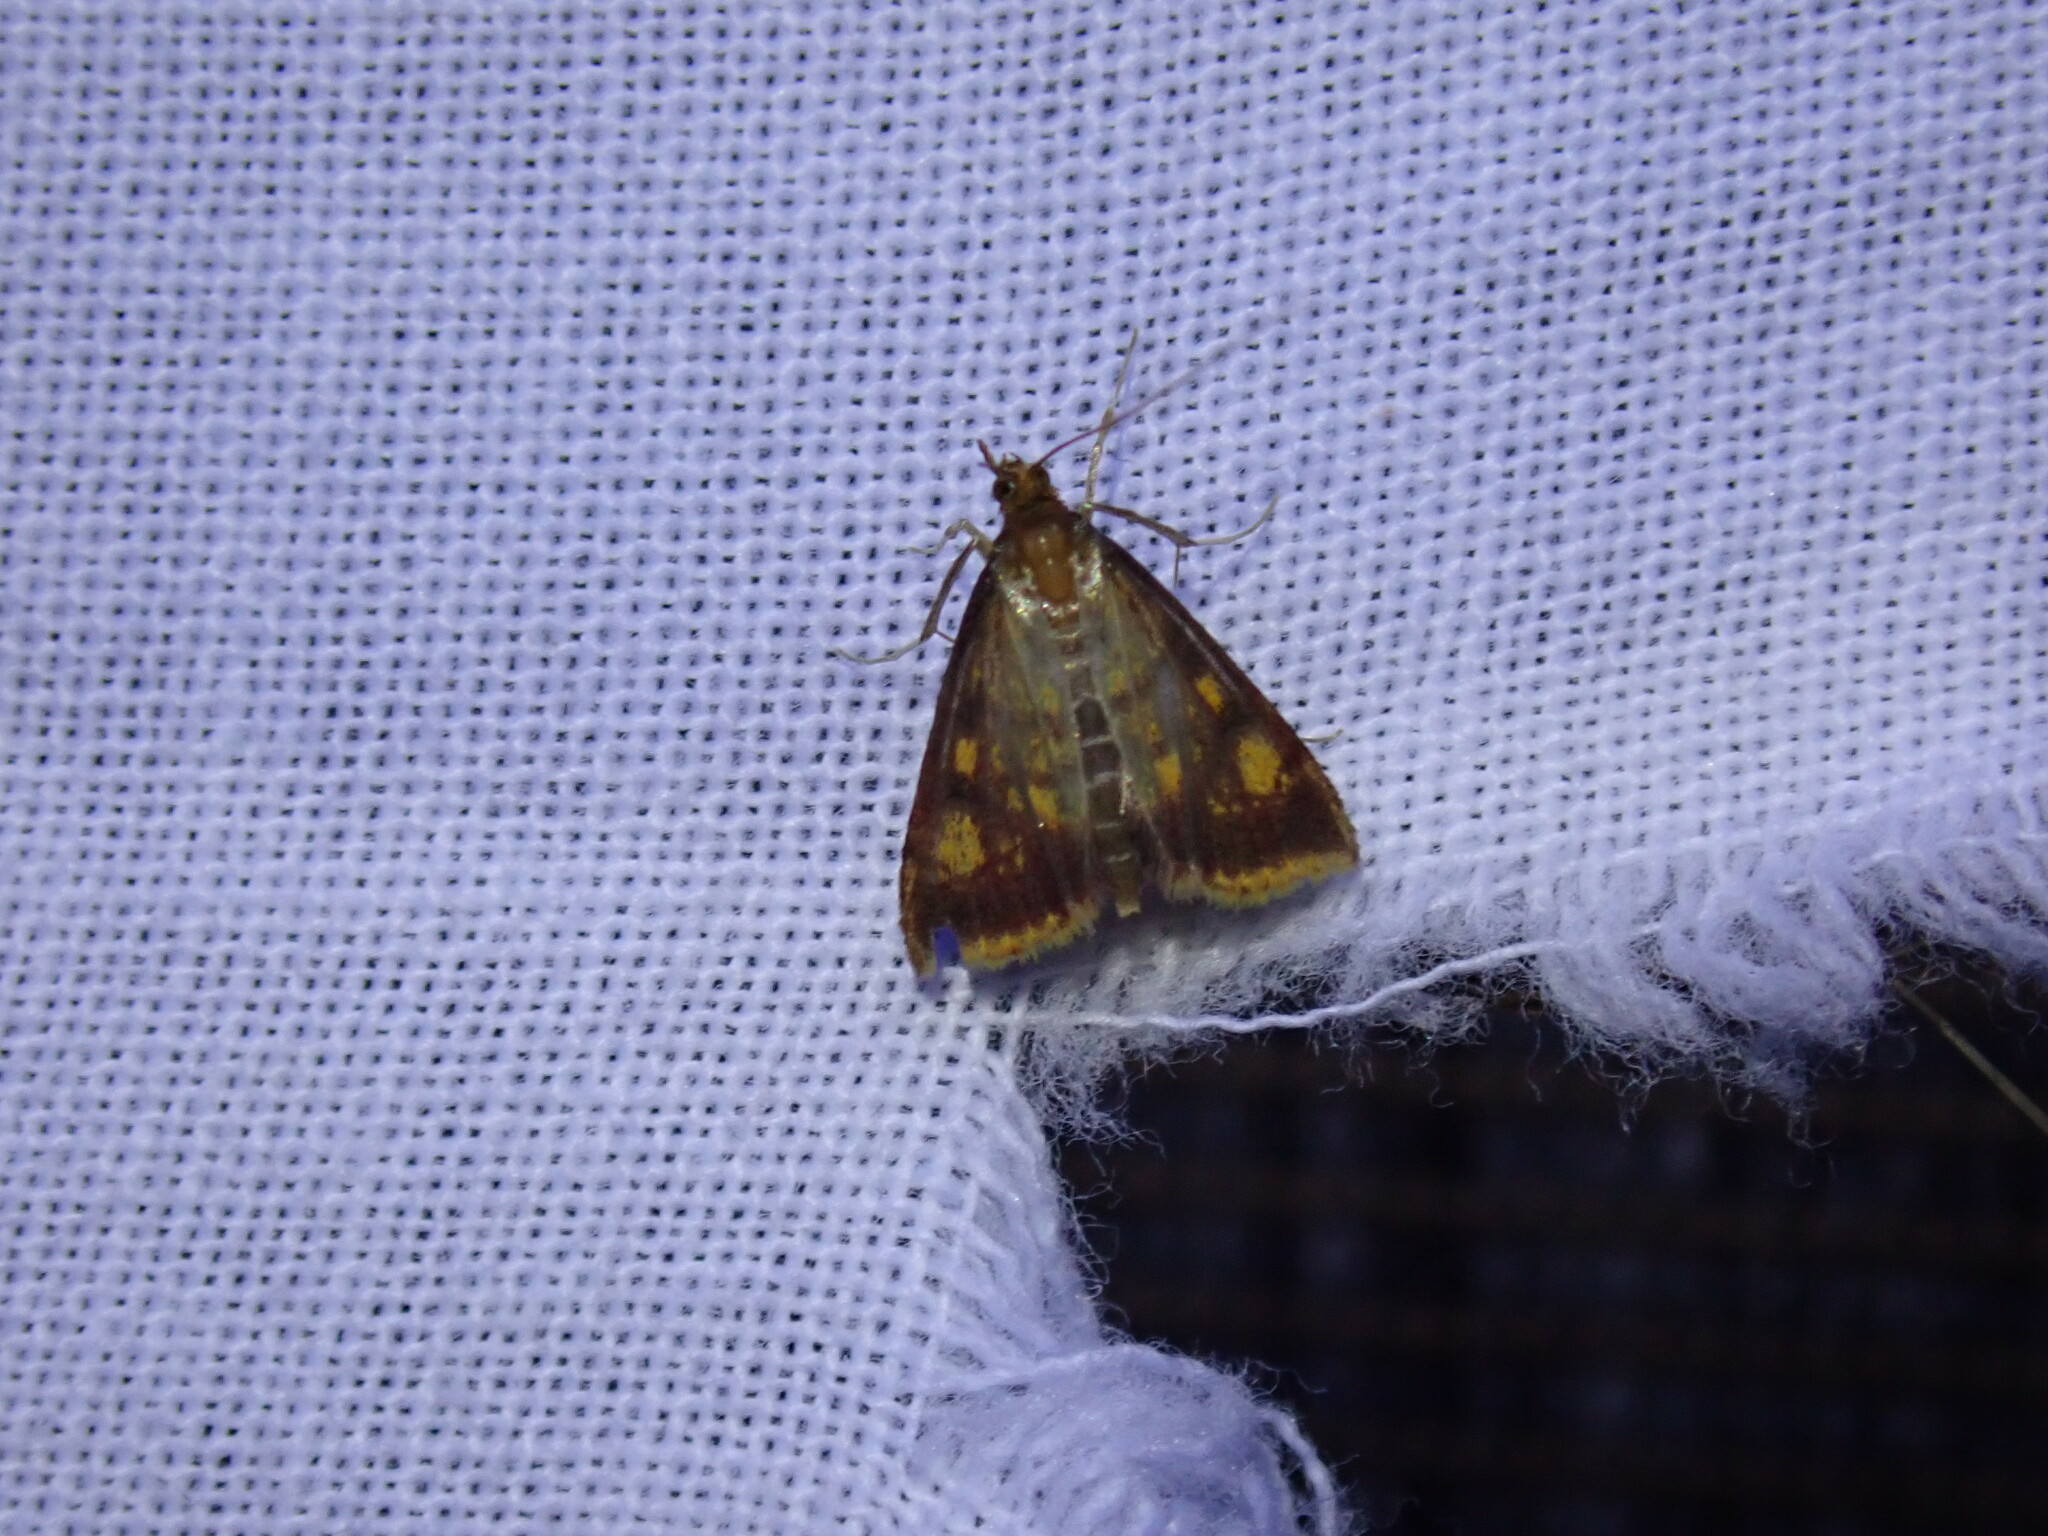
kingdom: Animalia
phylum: Arthropoda
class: Insecta
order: Lepidoptera
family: Crambidae
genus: Pyrausta
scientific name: Pyrausta acrionalis
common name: Mint-loving pyrausta moth
